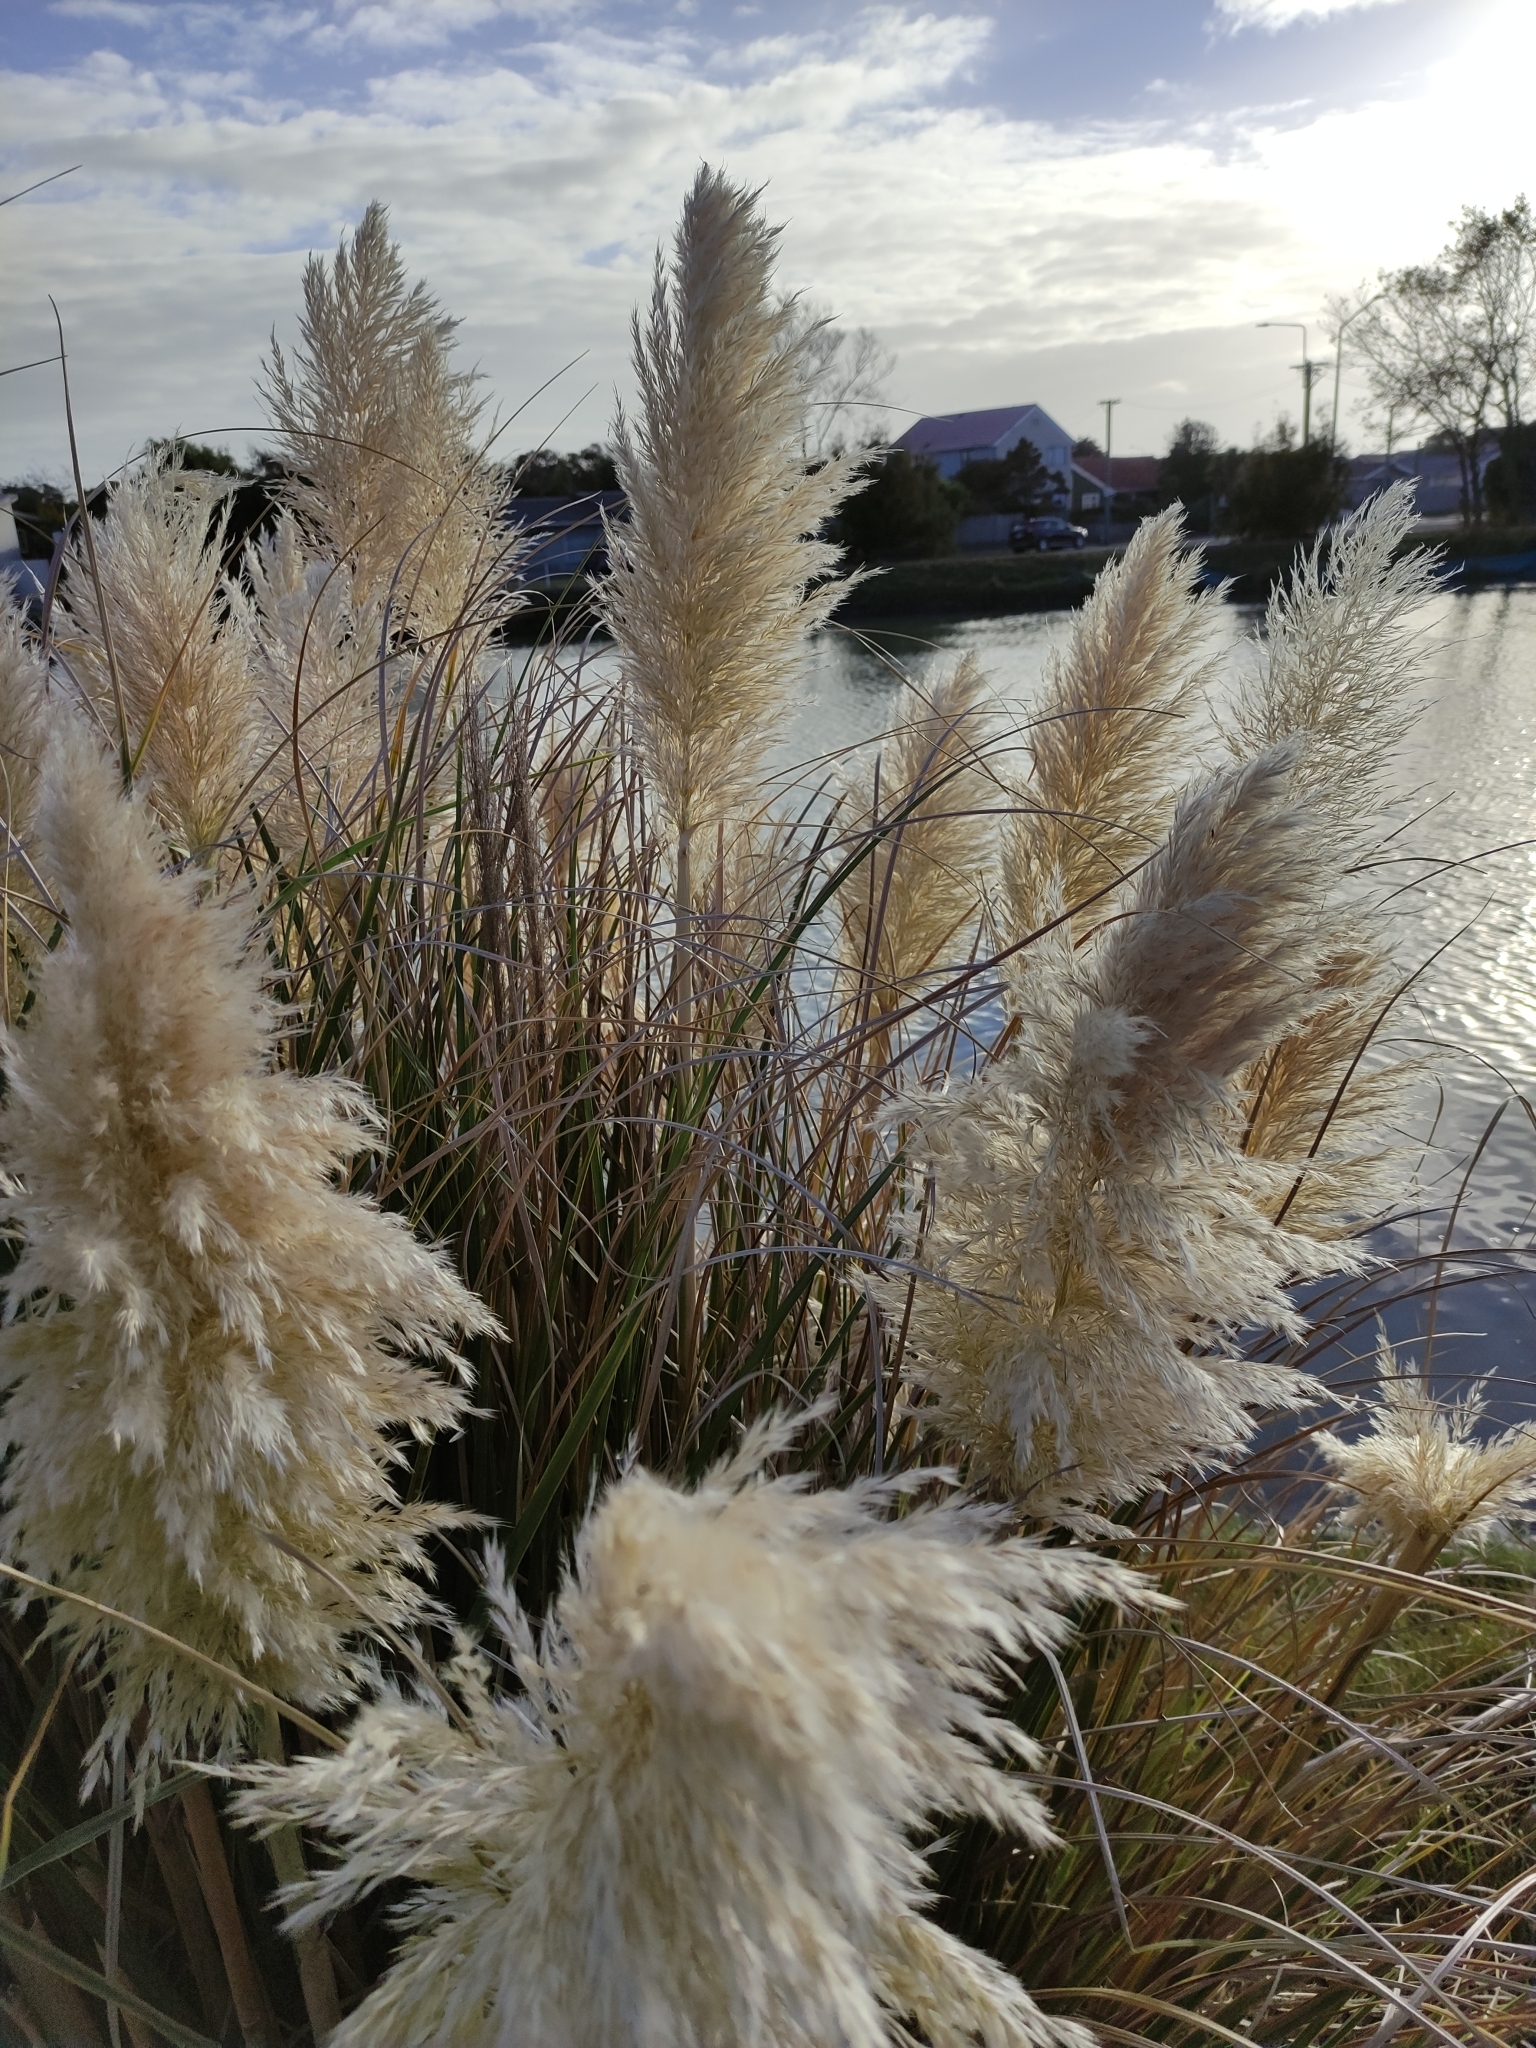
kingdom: Plantae
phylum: Tracheophyta
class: Liliopsida
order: Poales
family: Poaceae
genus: Cortaderia
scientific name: Cortaderia selloana
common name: Uruguayan pampas grass
